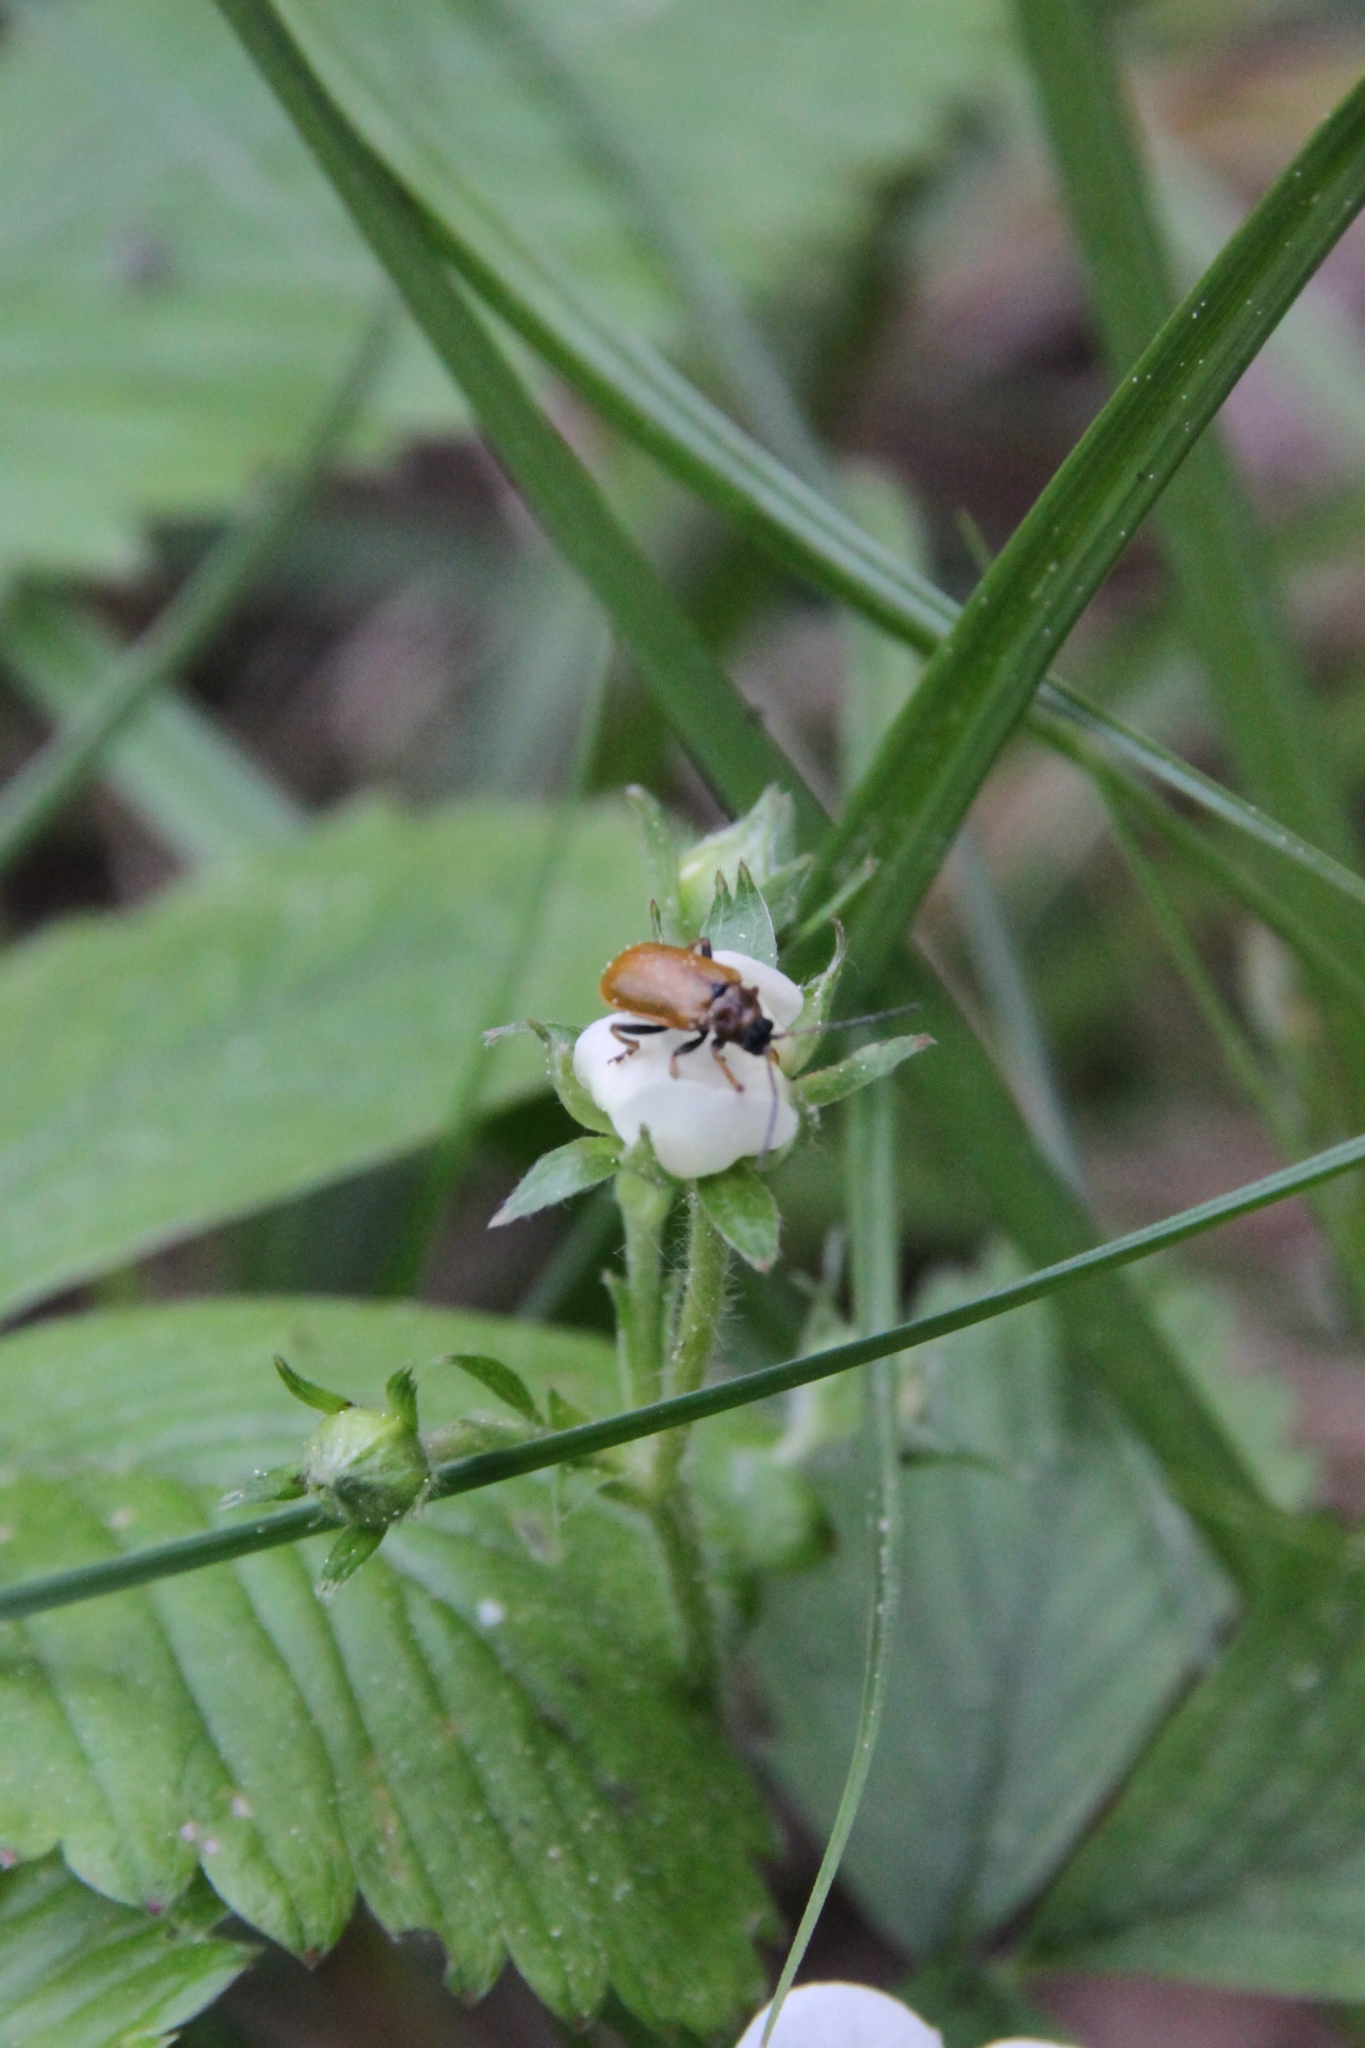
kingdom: Animalia
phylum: Arthropoda
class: Insecta
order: Coleoptera
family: Chrysomelidae
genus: Lochmaea
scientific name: Lochmaea
